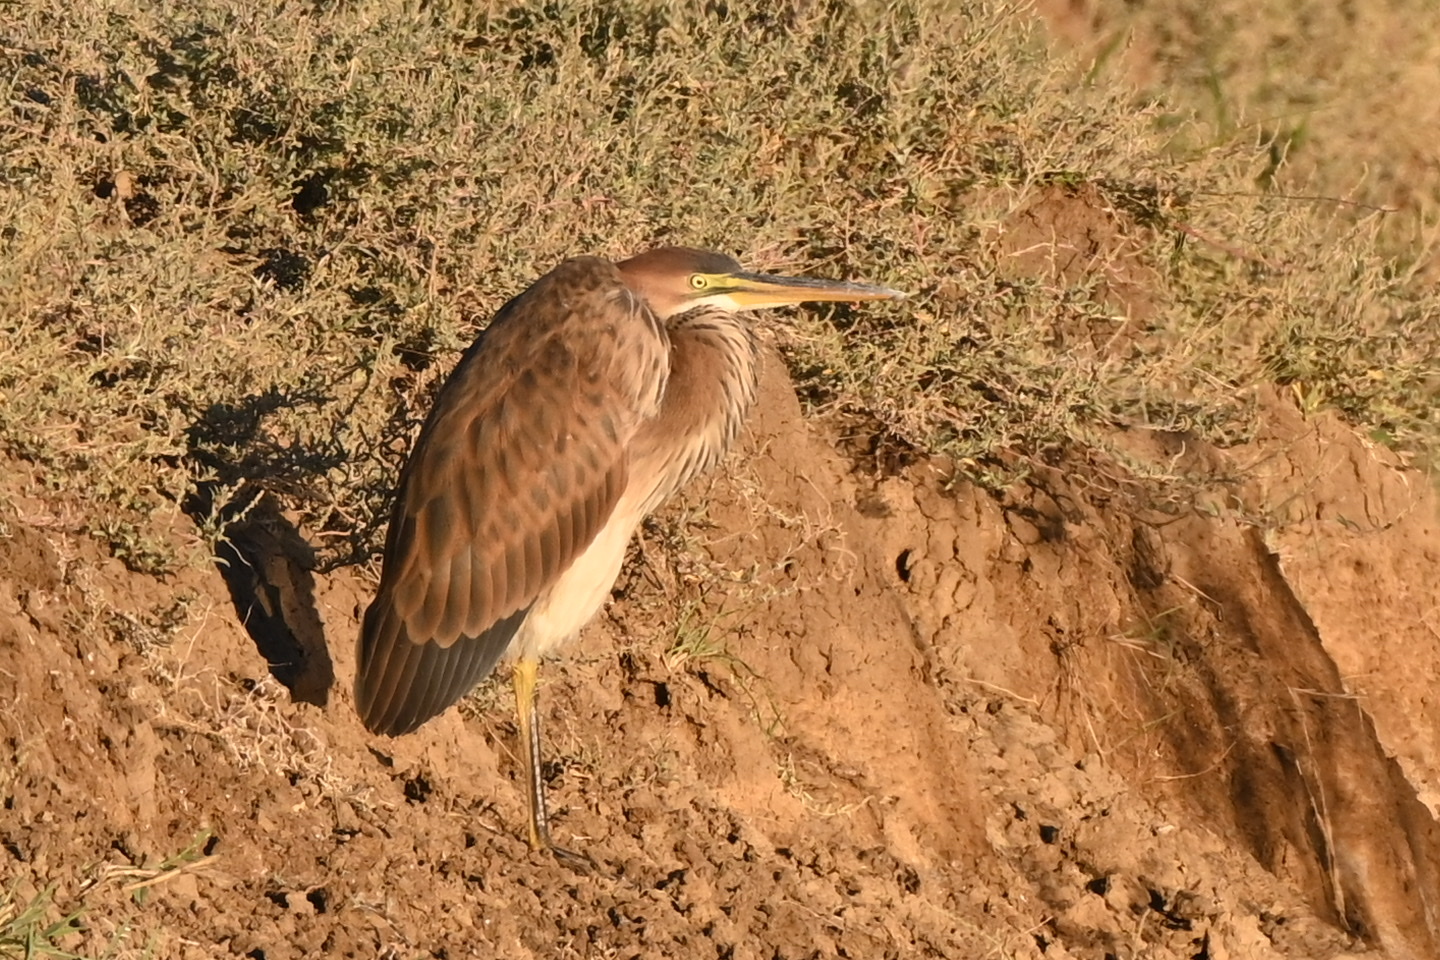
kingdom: Animalia
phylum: Chordata
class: Aves
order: Pelecaniformes
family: Ardeidae
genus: Ardea
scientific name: Ardea purpurea
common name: Purple heron
